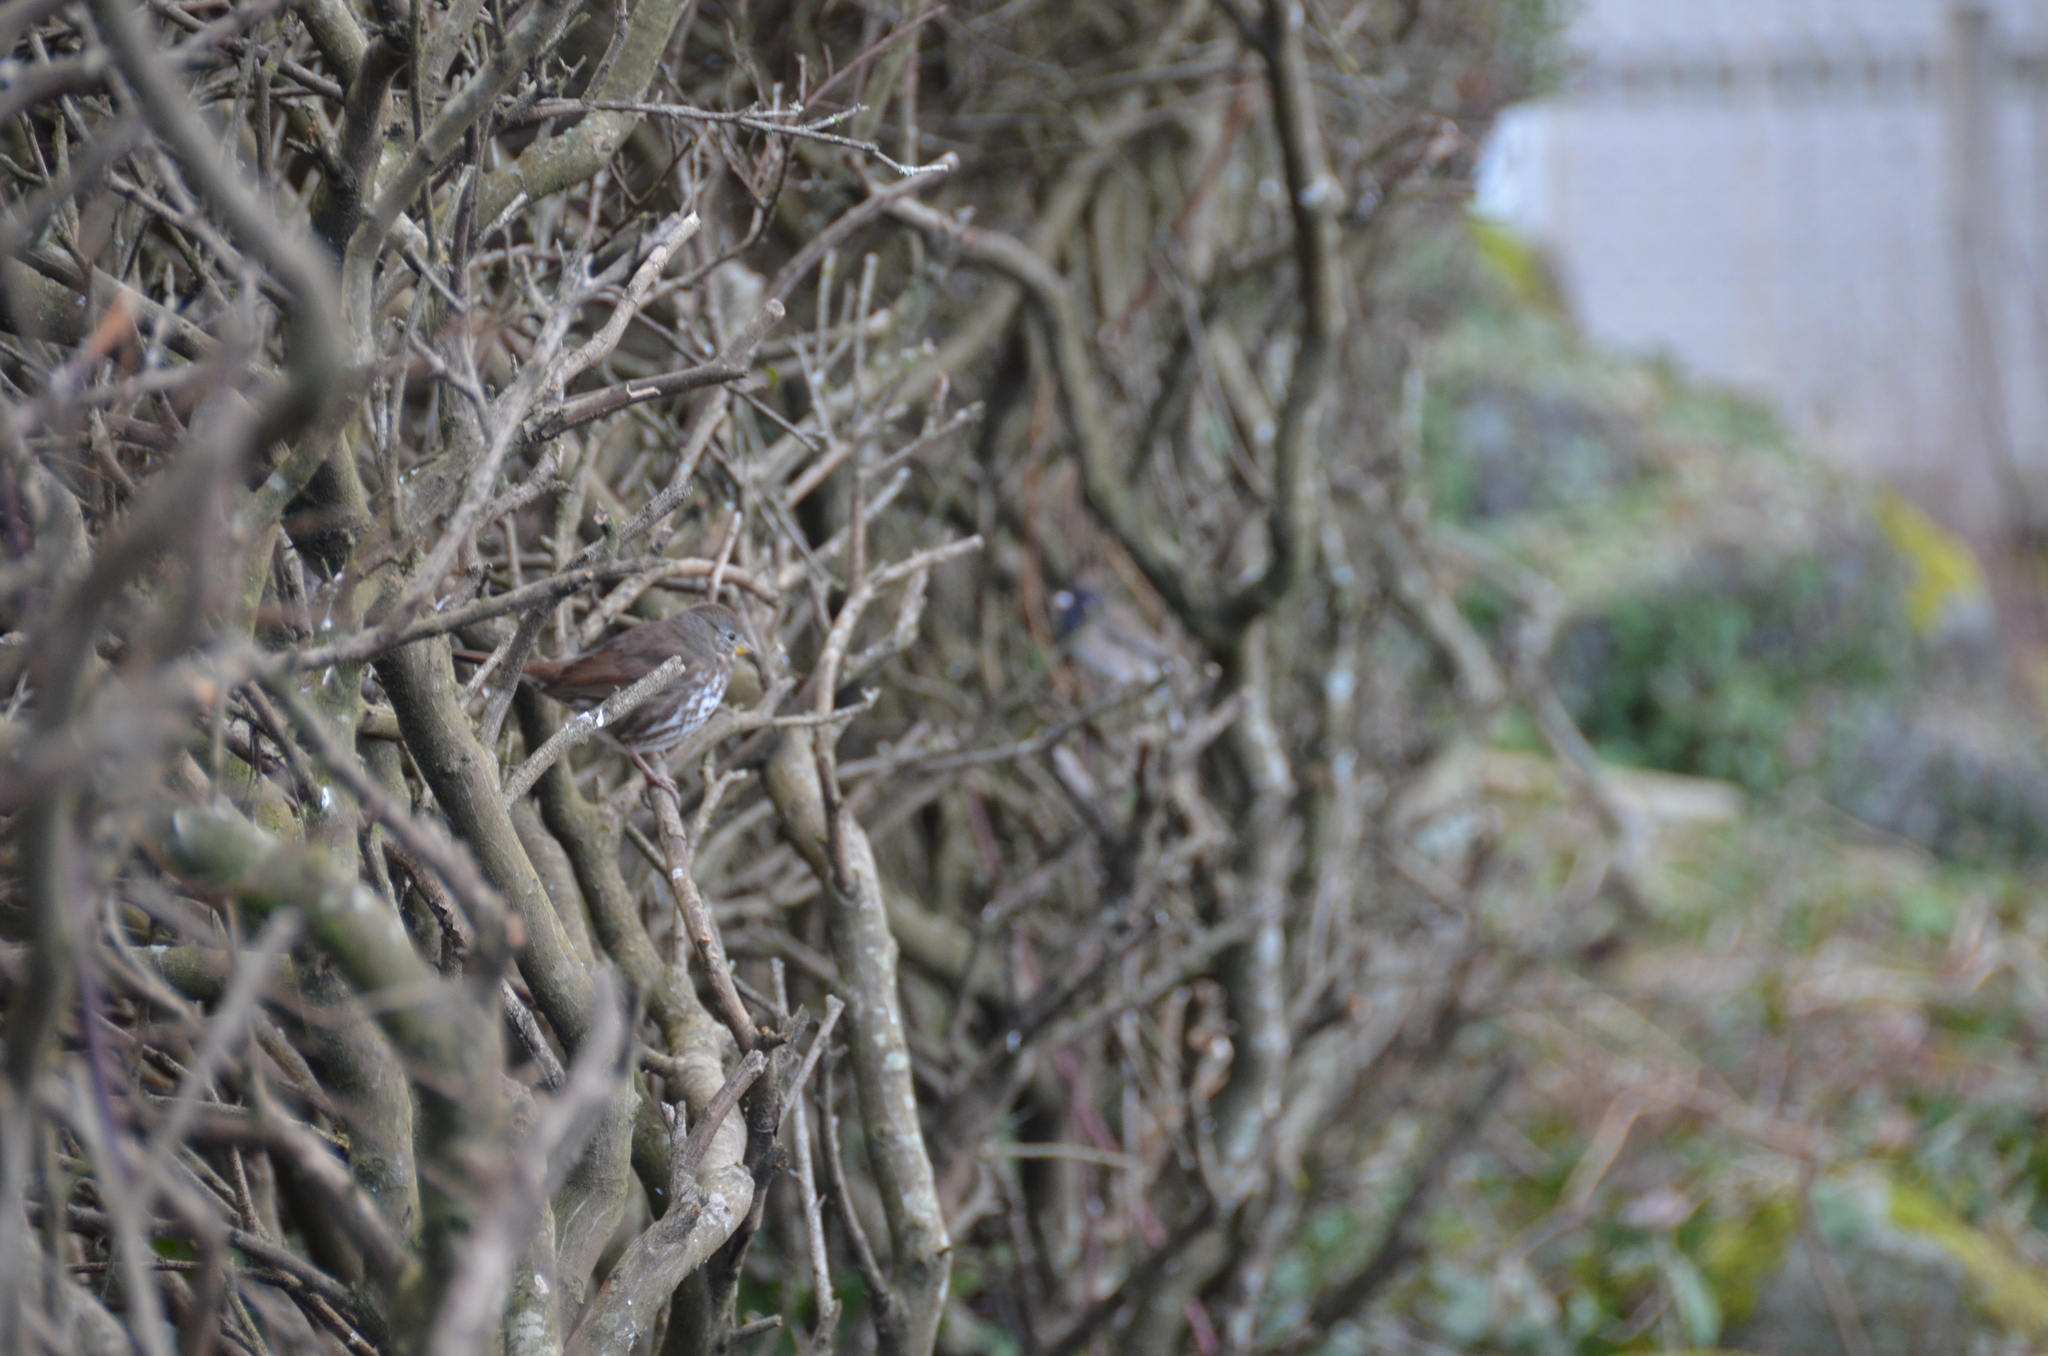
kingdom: Animalia
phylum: Chordata
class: Aves
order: Passeriformes
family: Passerellidae
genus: Passerella
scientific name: Passerella iliaca
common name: Fox sparrow
